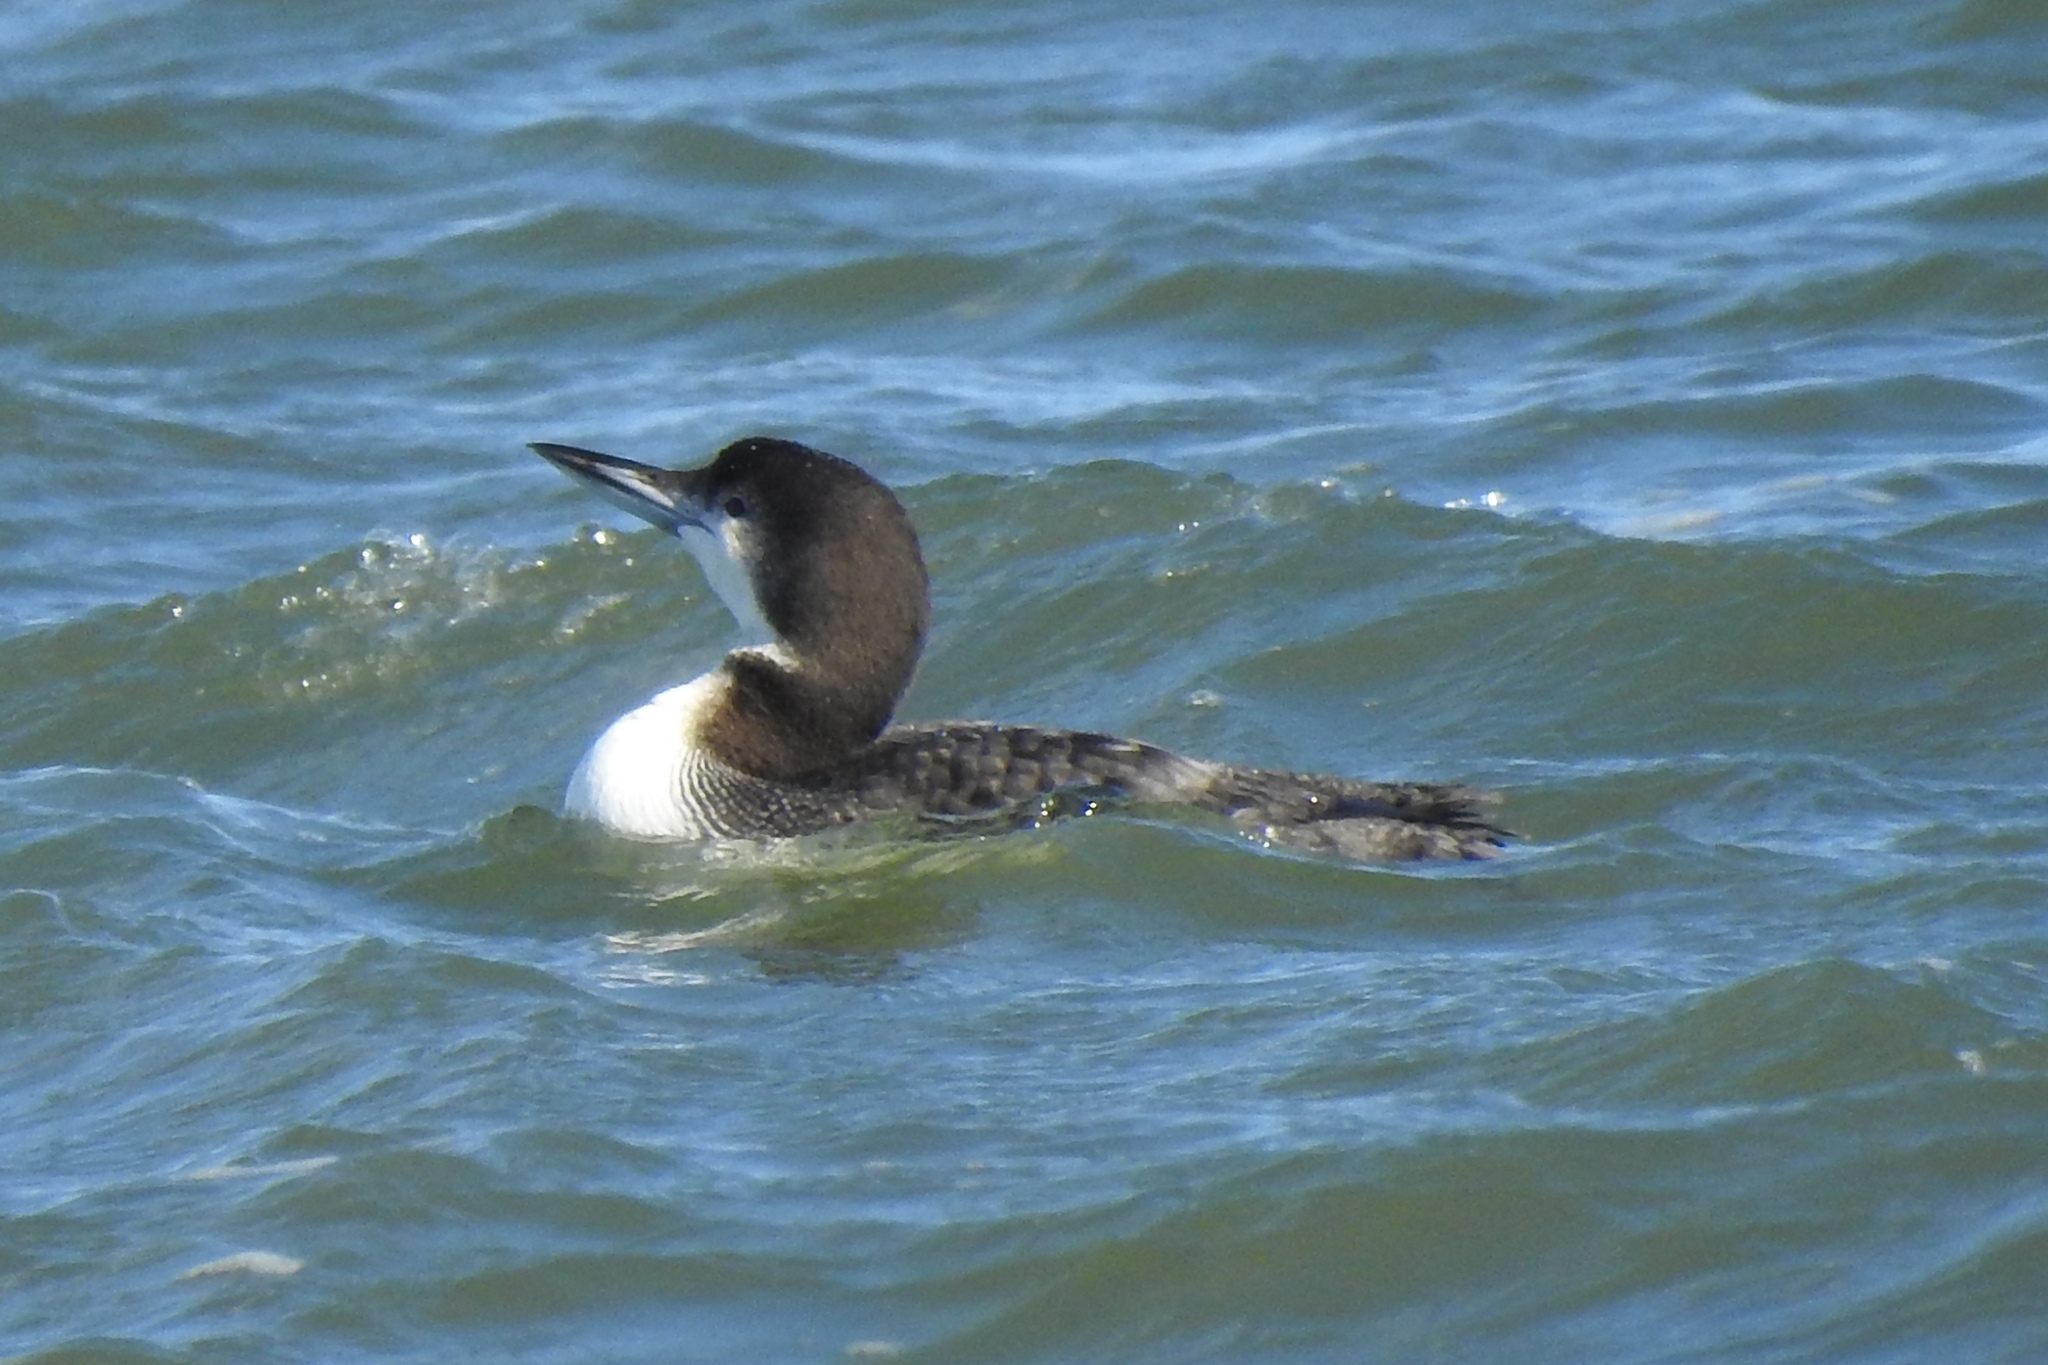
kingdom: Animalia
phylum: Chordata
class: Aves
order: Gaviiformes
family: Gaviidae
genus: Gavia
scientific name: Gavia immer
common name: Common loon
